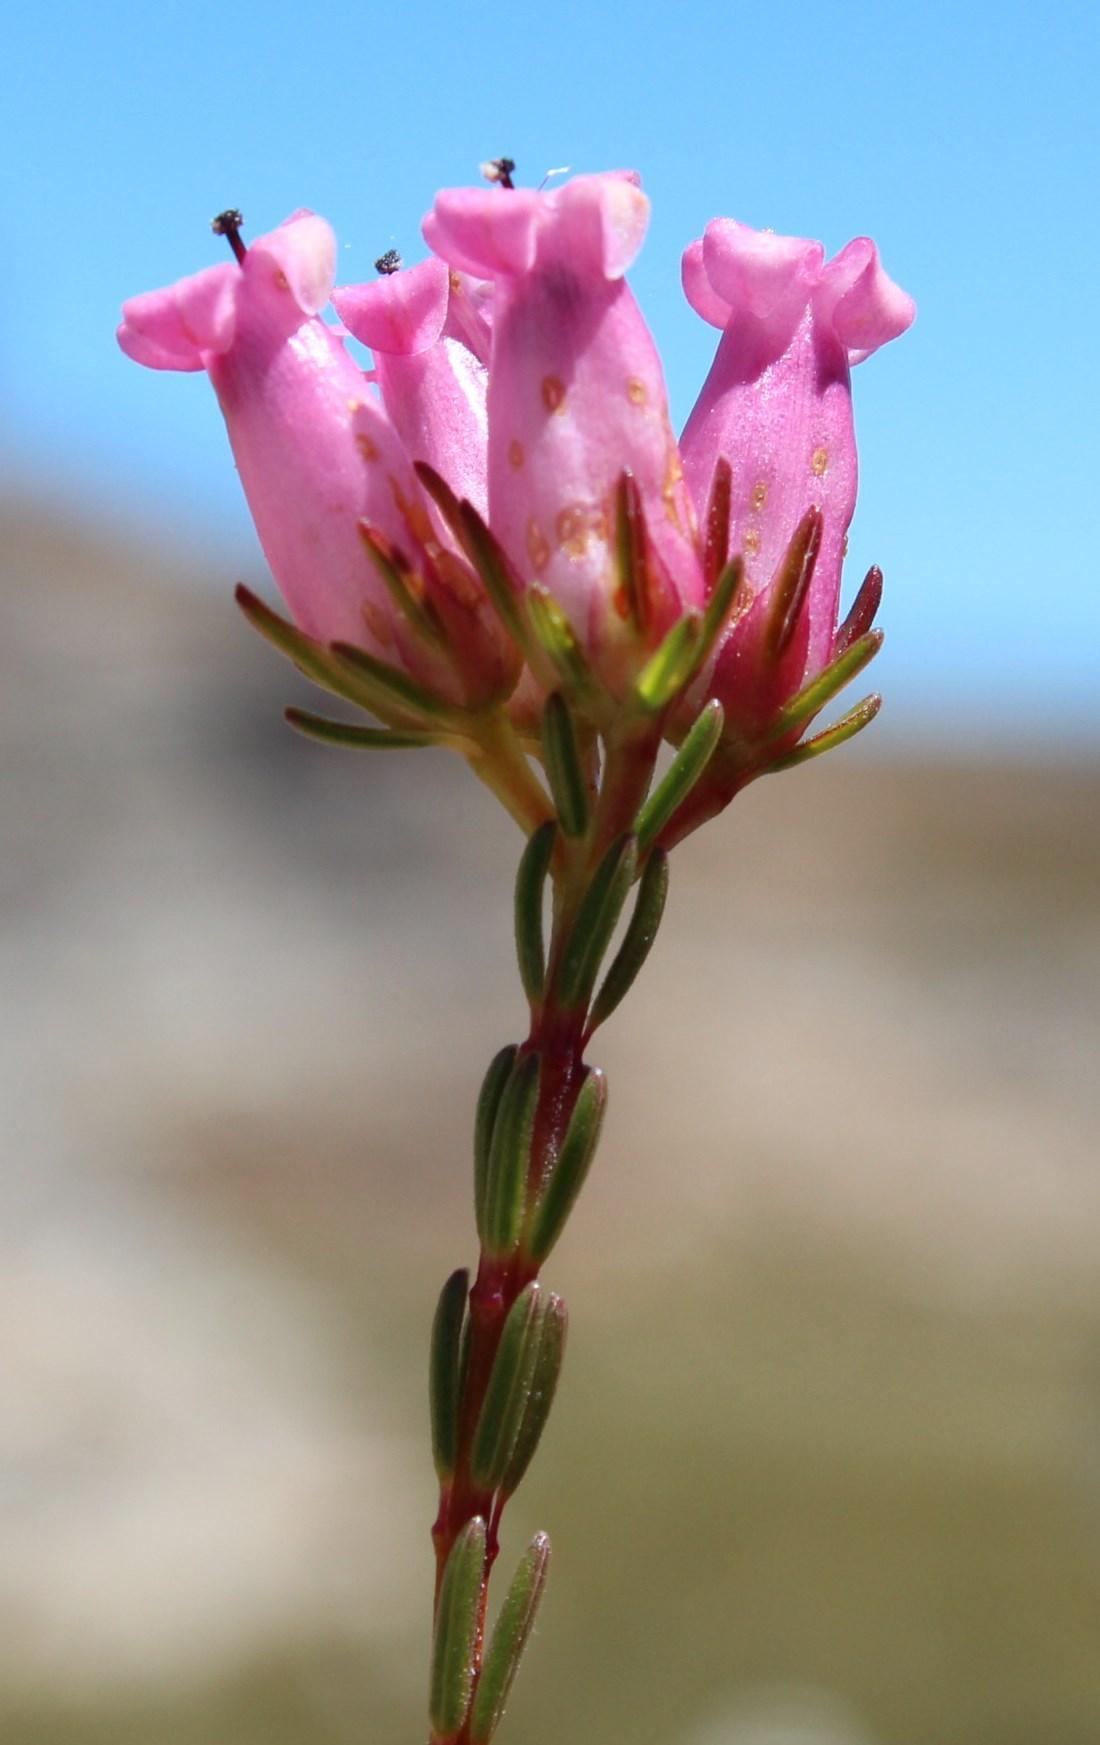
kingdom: Plantae
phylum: Tracheophyta
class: Magnoliopsida
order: Ericales
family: Ericaceae
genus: Erica
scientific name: Erica daphniflora
